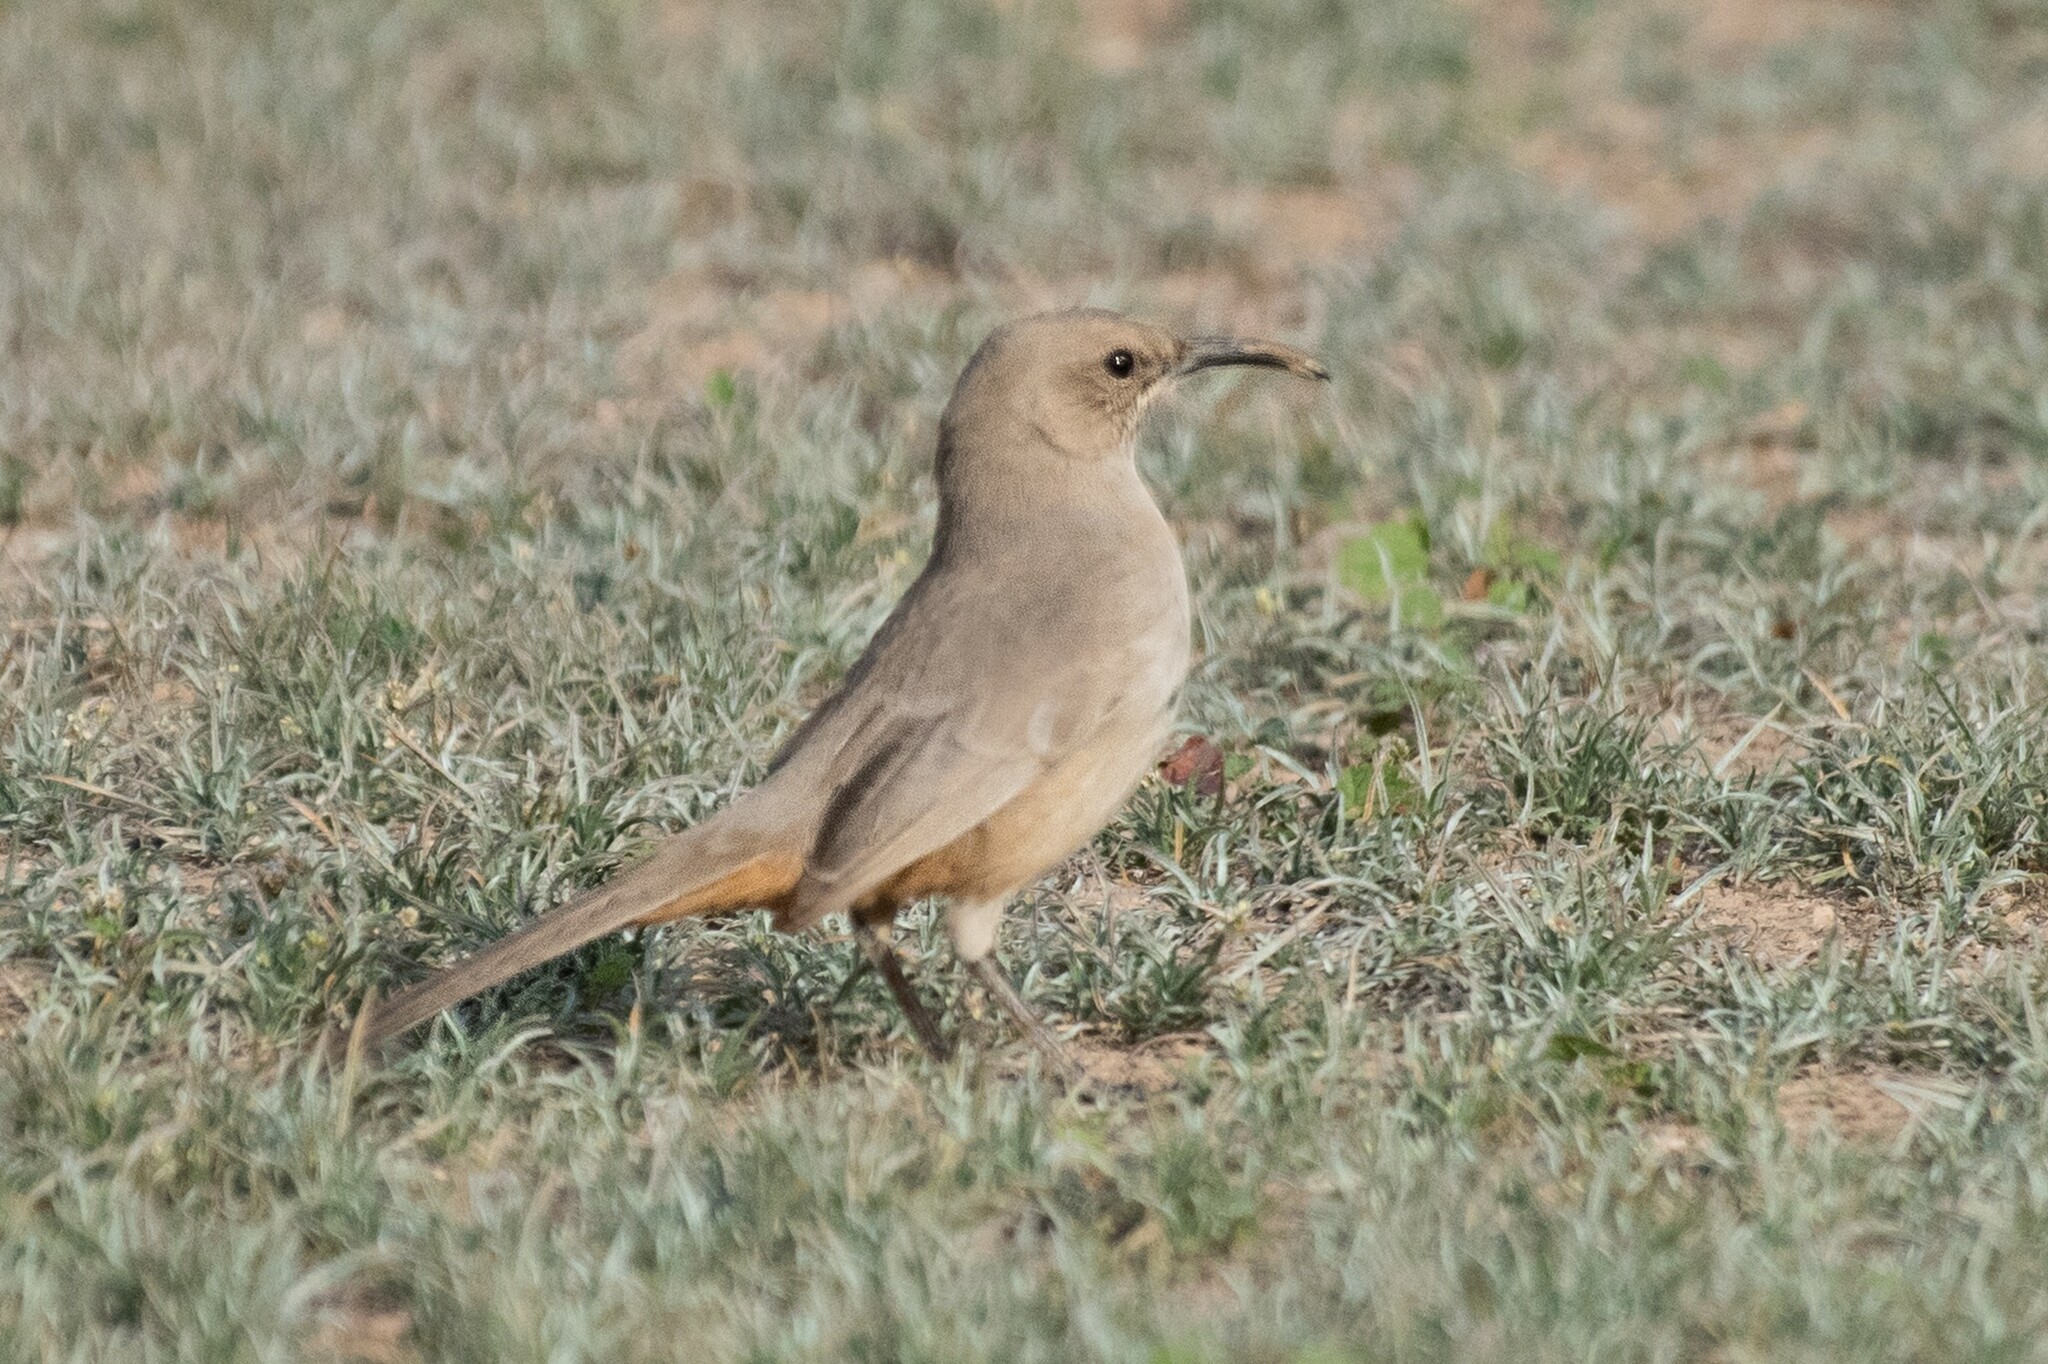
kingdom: Animalia
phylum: Chordata
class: Aves
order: Passeriformes
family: Mimidae
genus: Toxostoma
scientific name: Toxostoma lecontei
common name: Le conte's thrasher
